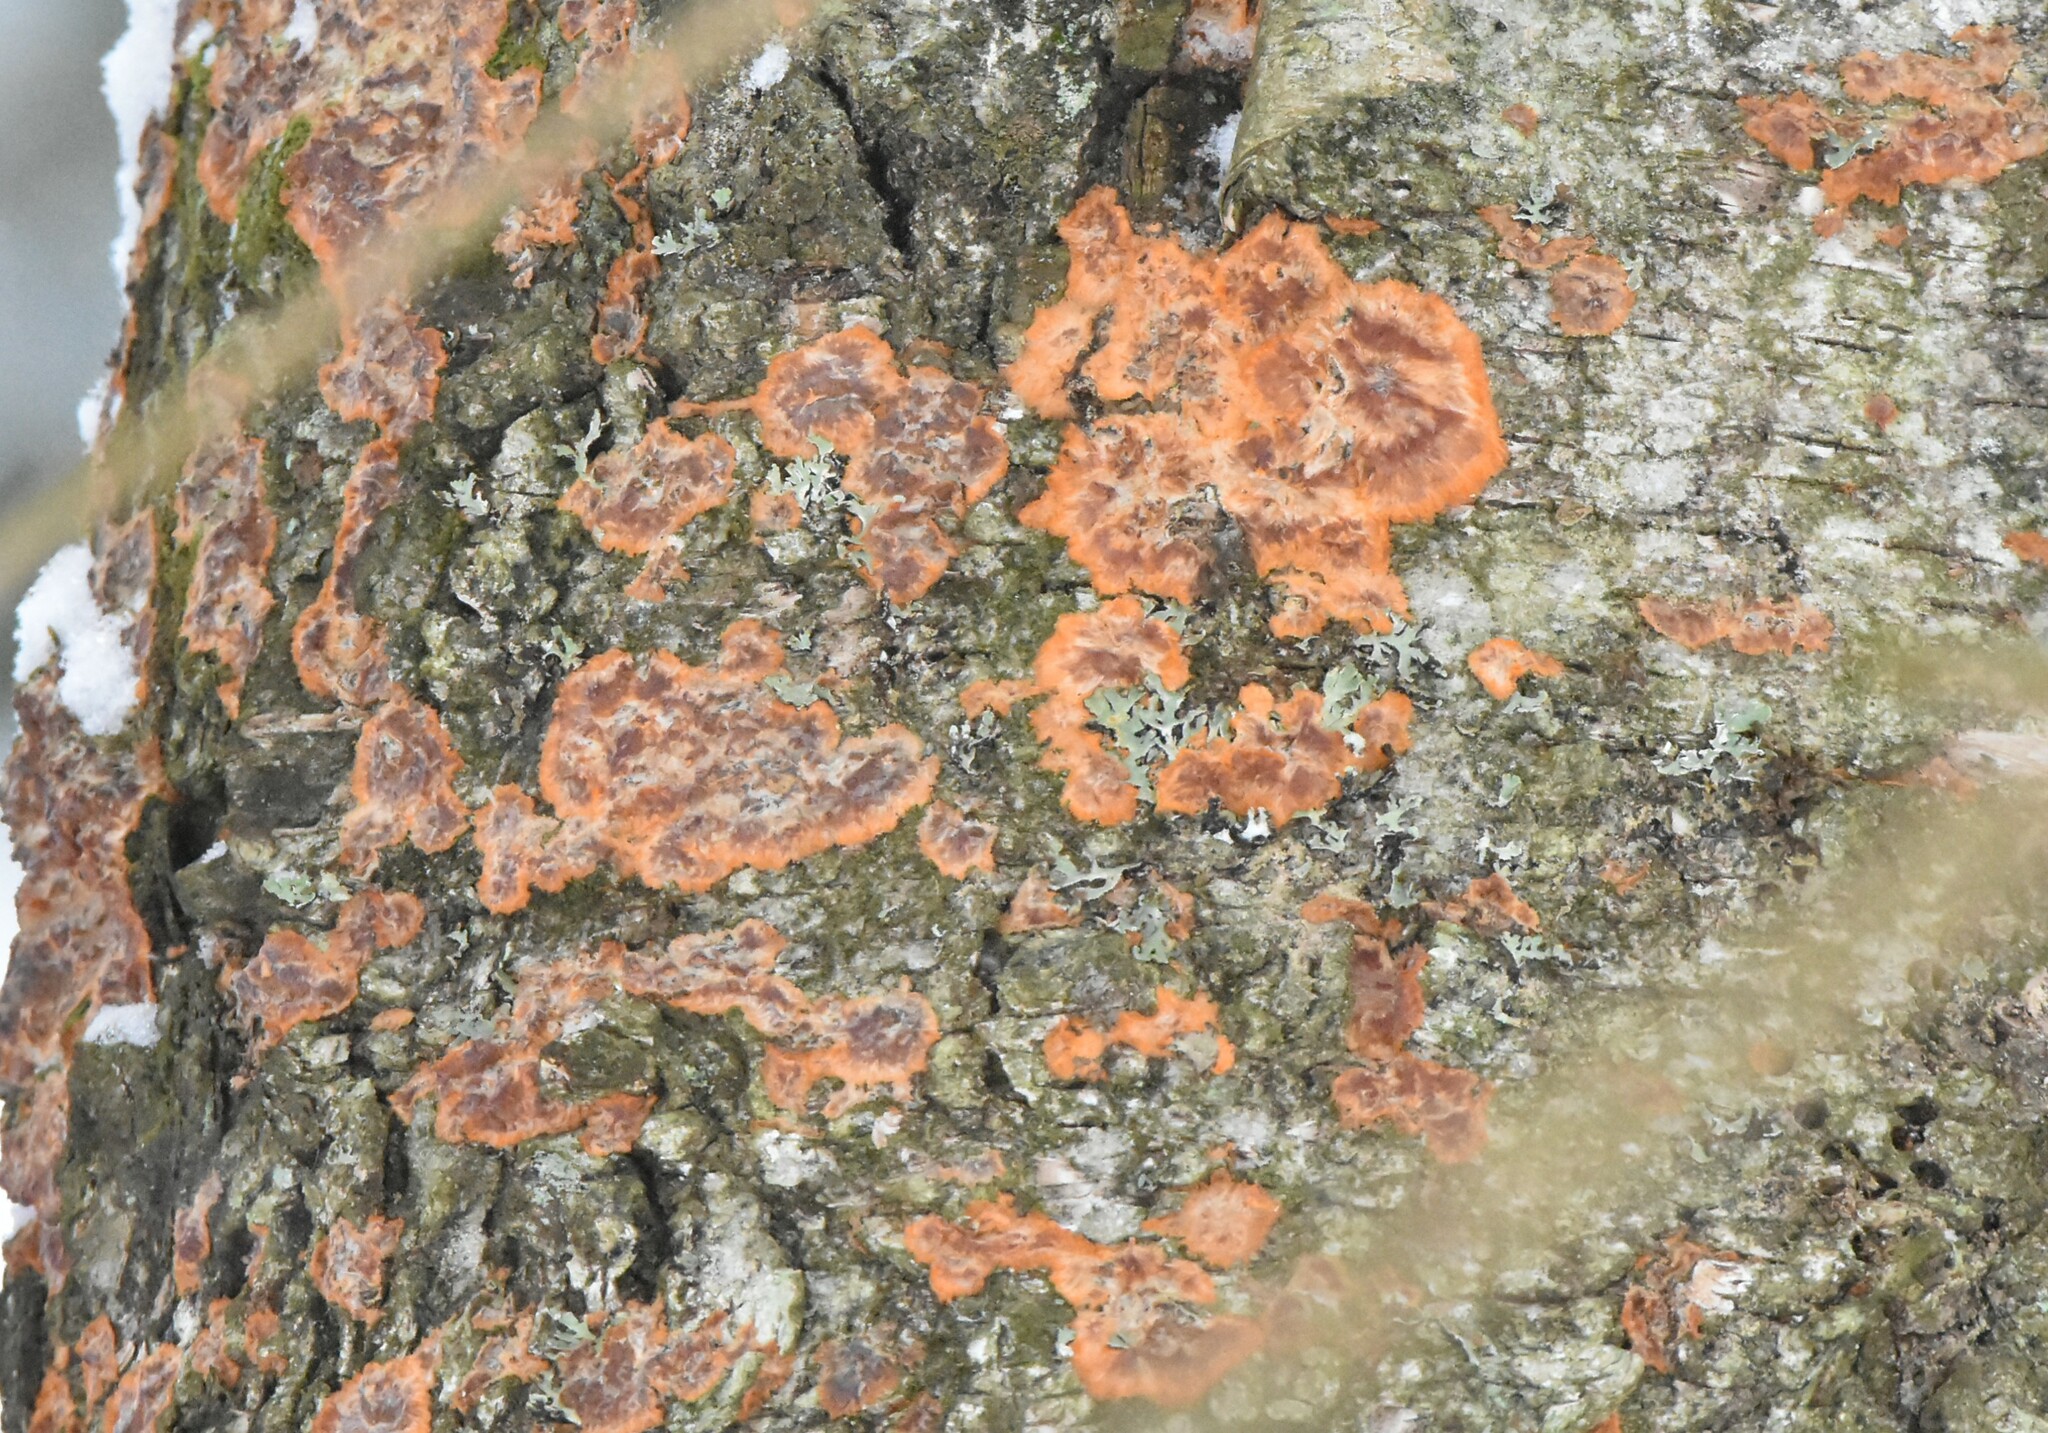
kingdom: Fungi
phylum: Basidiomycota
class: Agaricomycetes
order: Polyporales
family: Meruliaceae
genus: Phlebia
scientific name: Phlebia radiata
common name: Wrinkled crust
